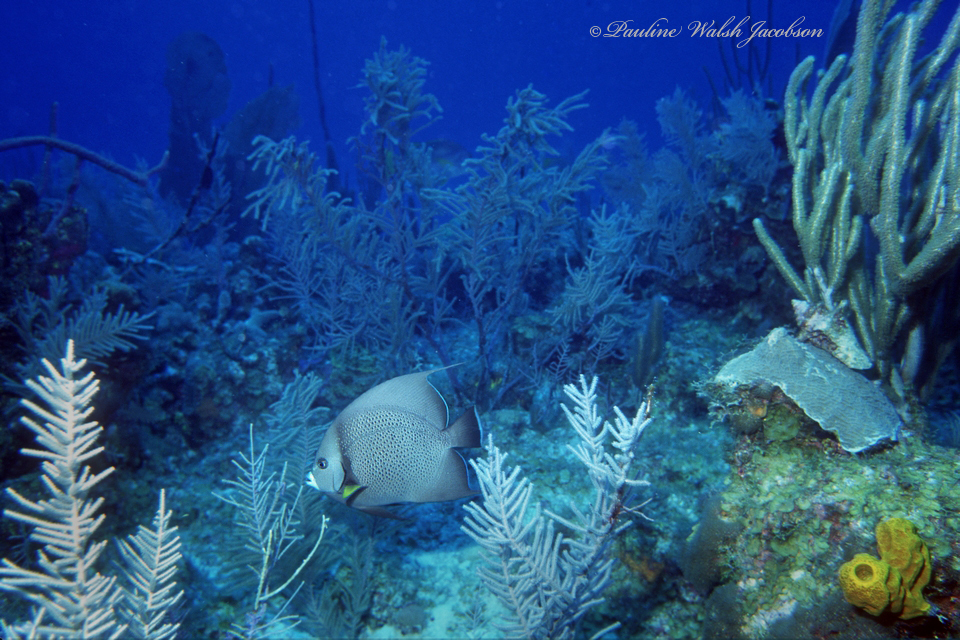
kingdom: Animalia
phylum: Chordata
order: Perciformes
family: Pomacanthidae
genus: Pomacanthus
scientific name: Pomacanthus arcuatus
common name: Gray angelfish
